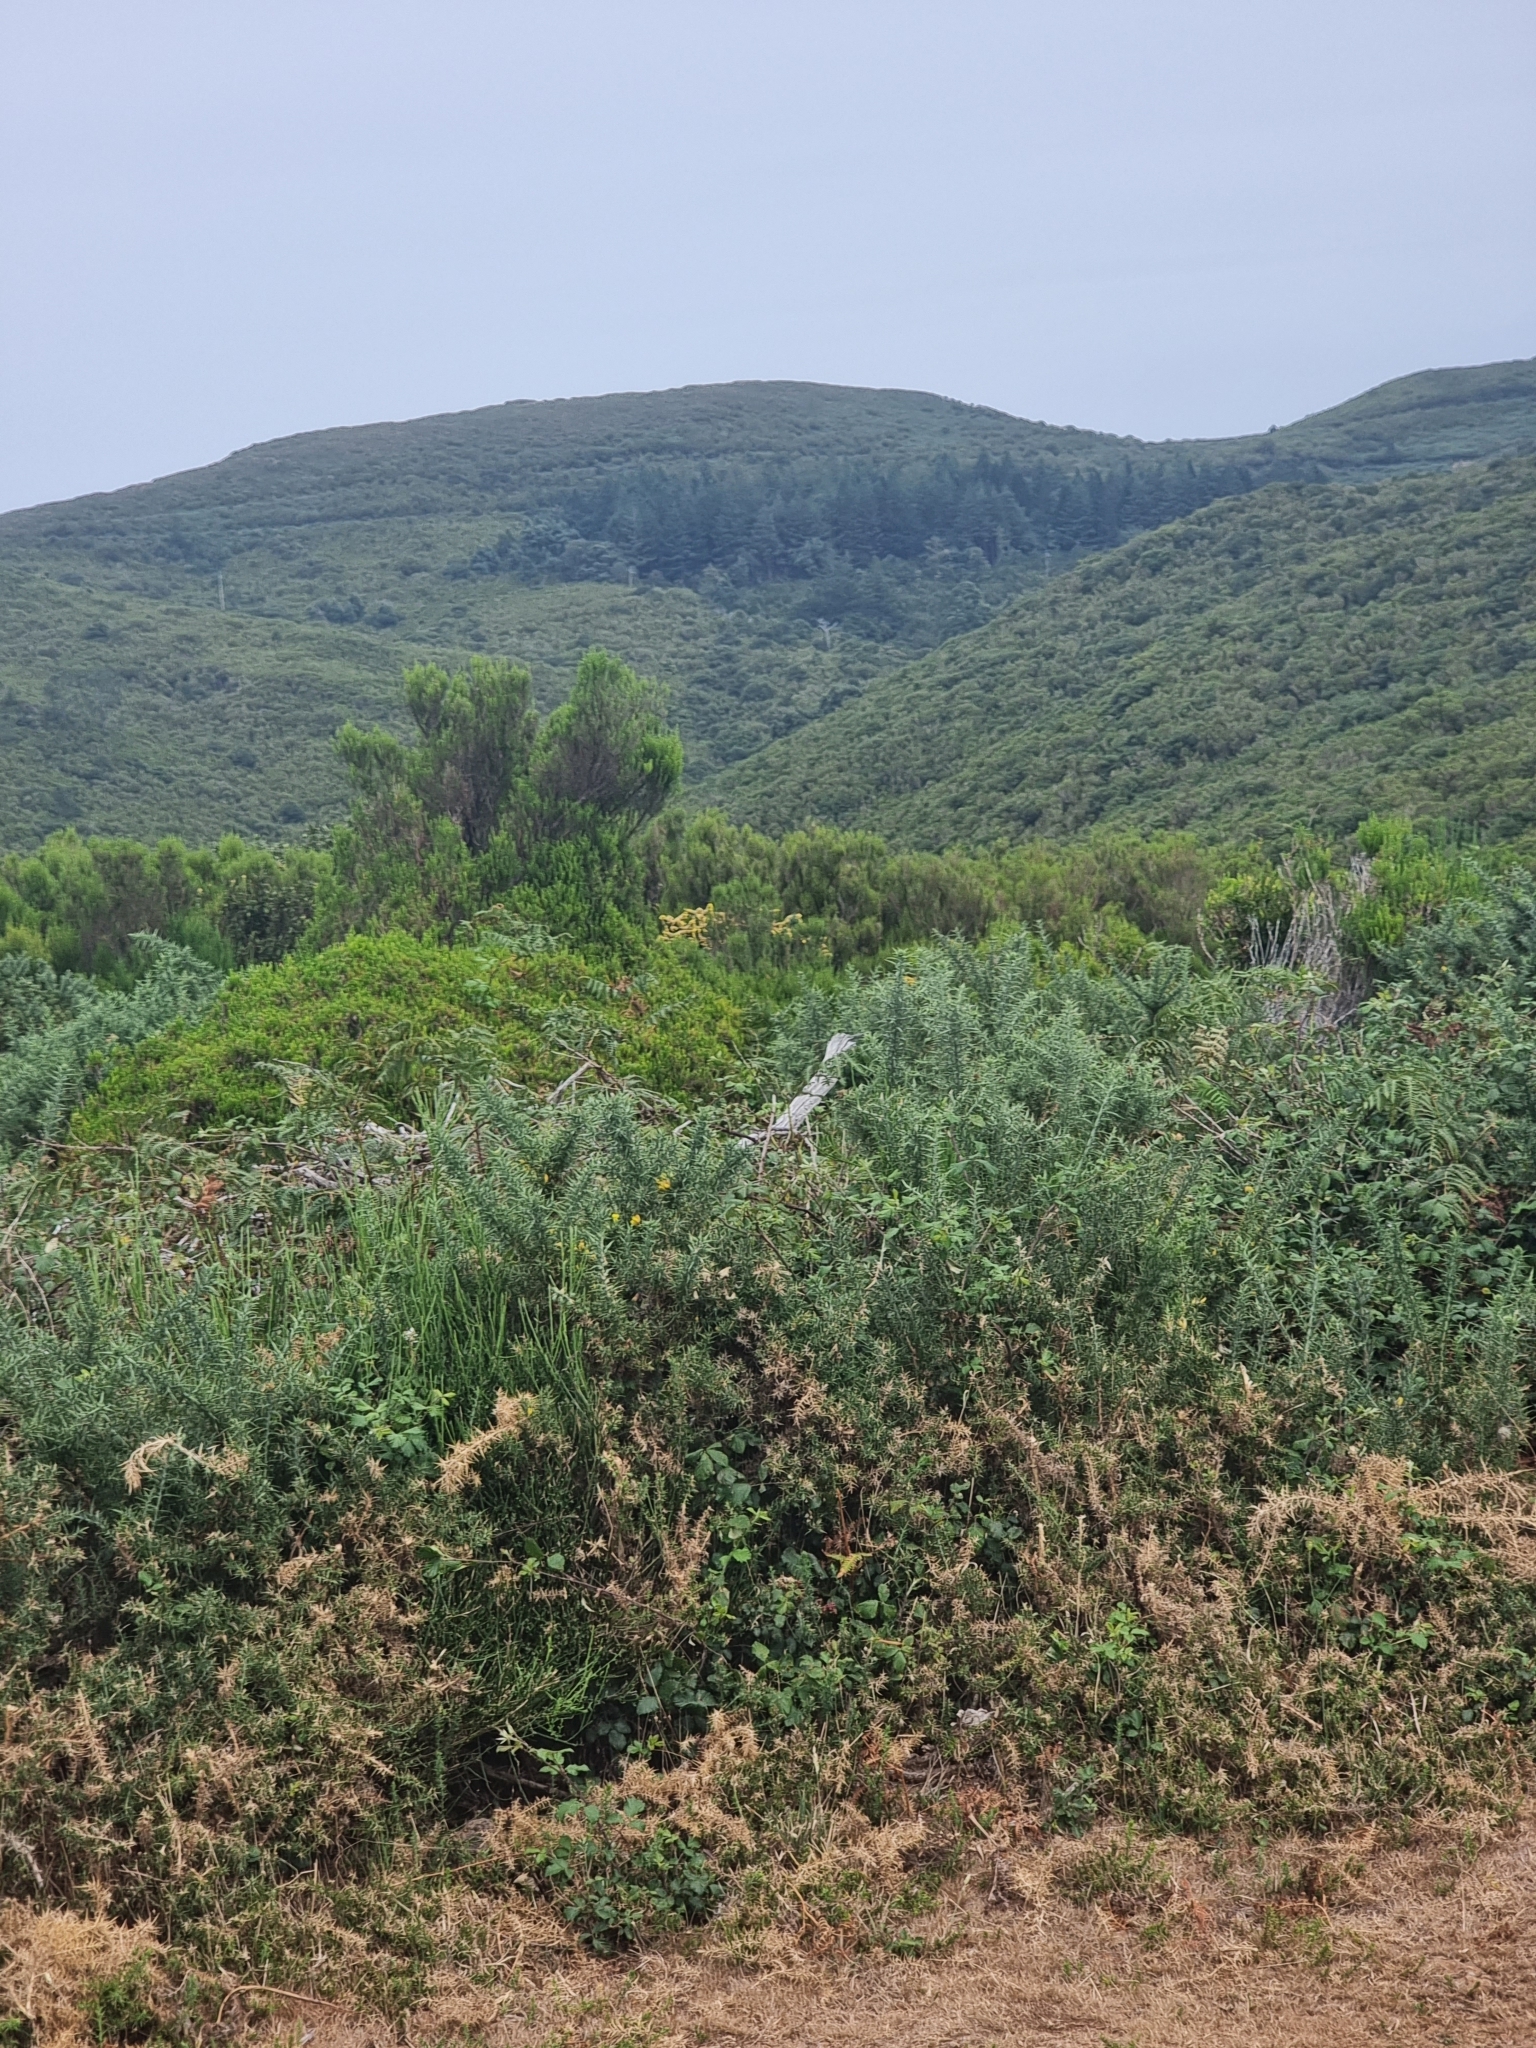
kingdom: Plantae
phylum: Tracheophyta
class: Magnoliopsida
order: Ericales
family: Ericaceae
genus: Erica
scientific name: Erica platycodon
